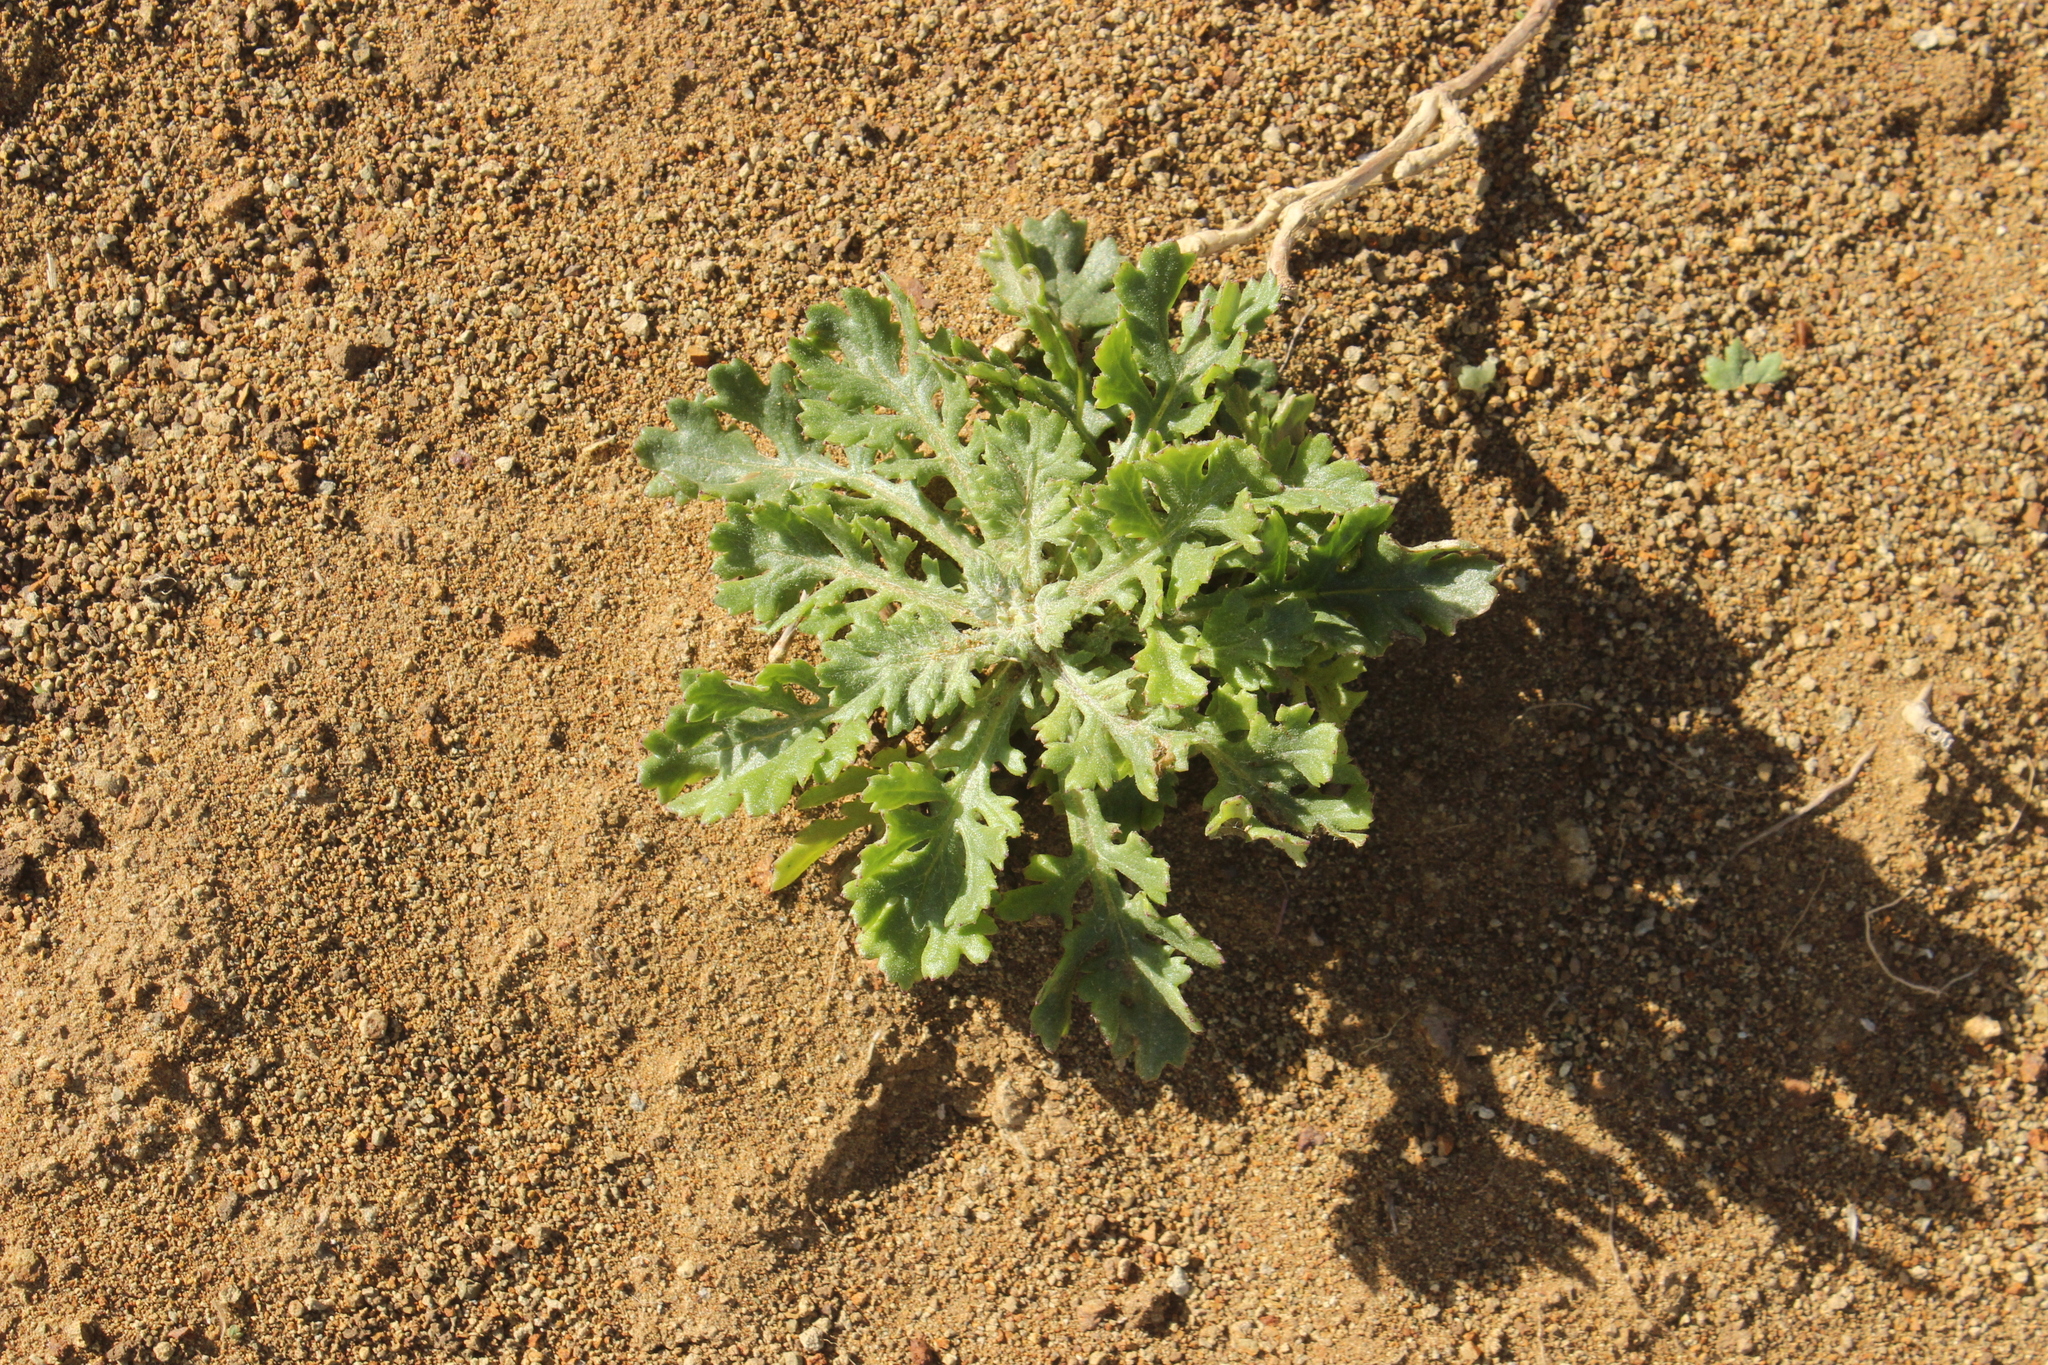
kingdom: Plantae
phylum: Tracheophyta
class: Magnoliopsida
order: Asterales
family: Asteraceae
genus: Senecio
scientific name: Senecio radiolatus
